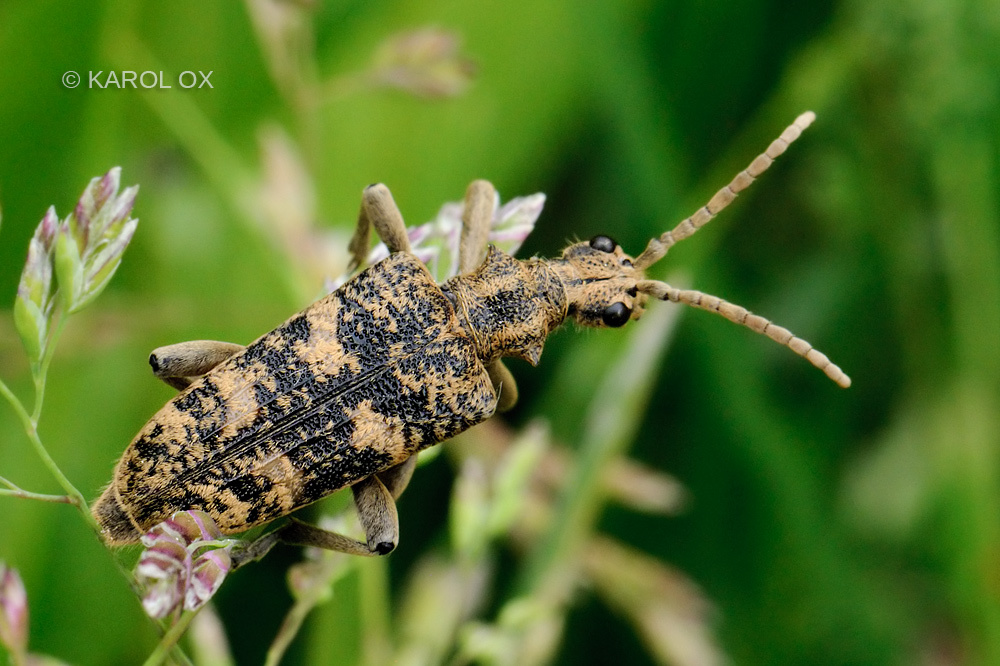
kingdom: Animalia
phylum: Arthropoda
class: Insecta
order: Coleoptera
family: Cerambycidae
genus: Rhagium
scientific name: Rhagium sycophanta
